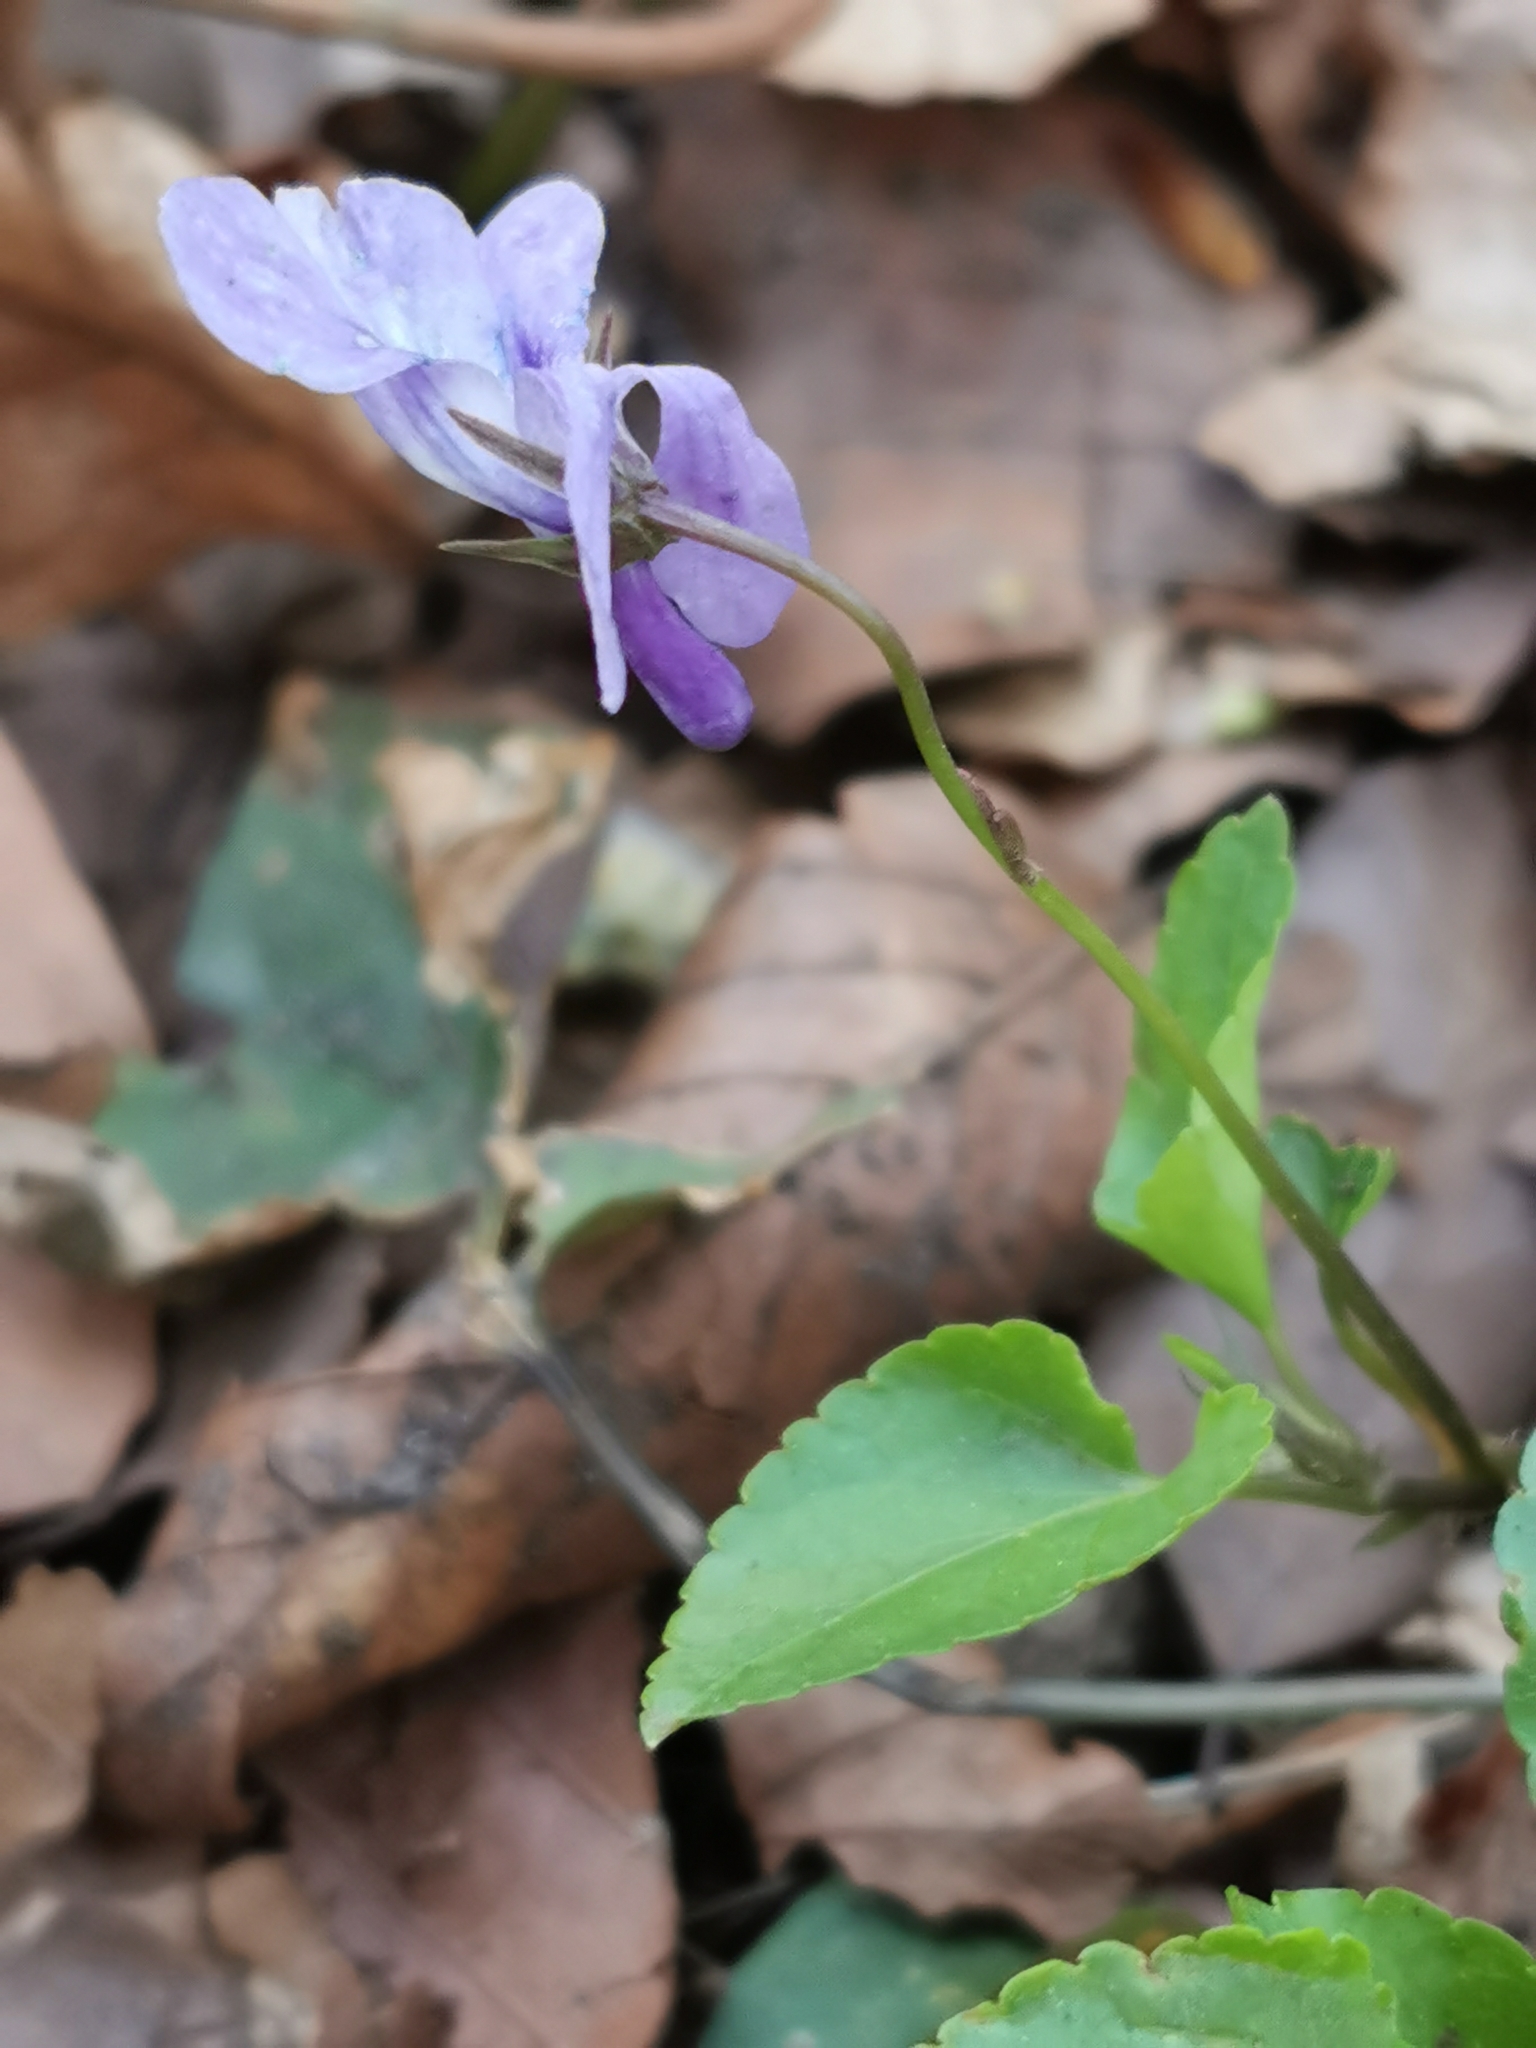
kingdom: Plantae
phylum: Tracheophyta
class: Magnoliopsida
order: Malpighiales
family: Violaceae
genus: Viola
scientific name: Viola reichenbachiana
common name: Early dog-violet
